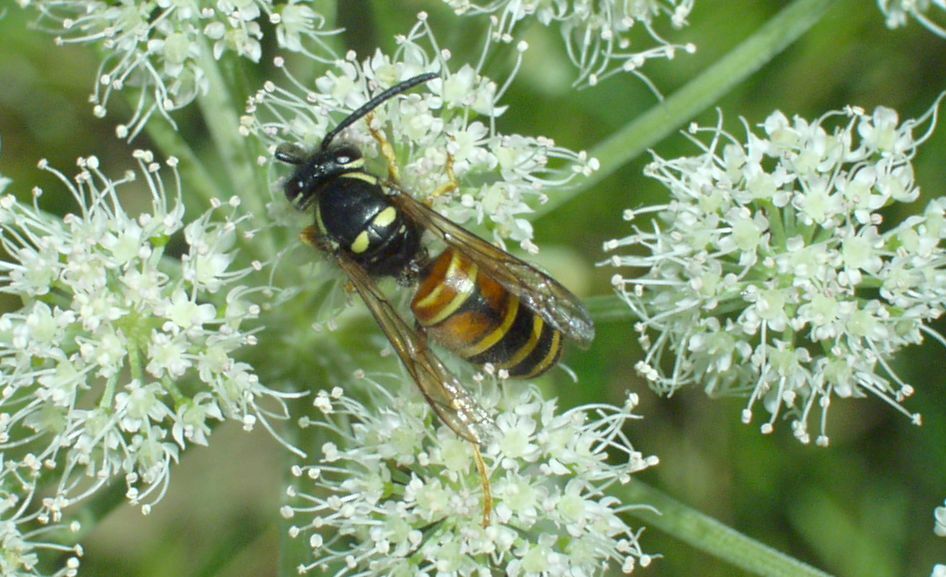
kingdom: Animalia
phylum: Arthropoda
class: Insecta
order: Hymenoptera
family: Vespidae
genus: Vespula
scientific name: Vespula rufa
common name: Red wasp
